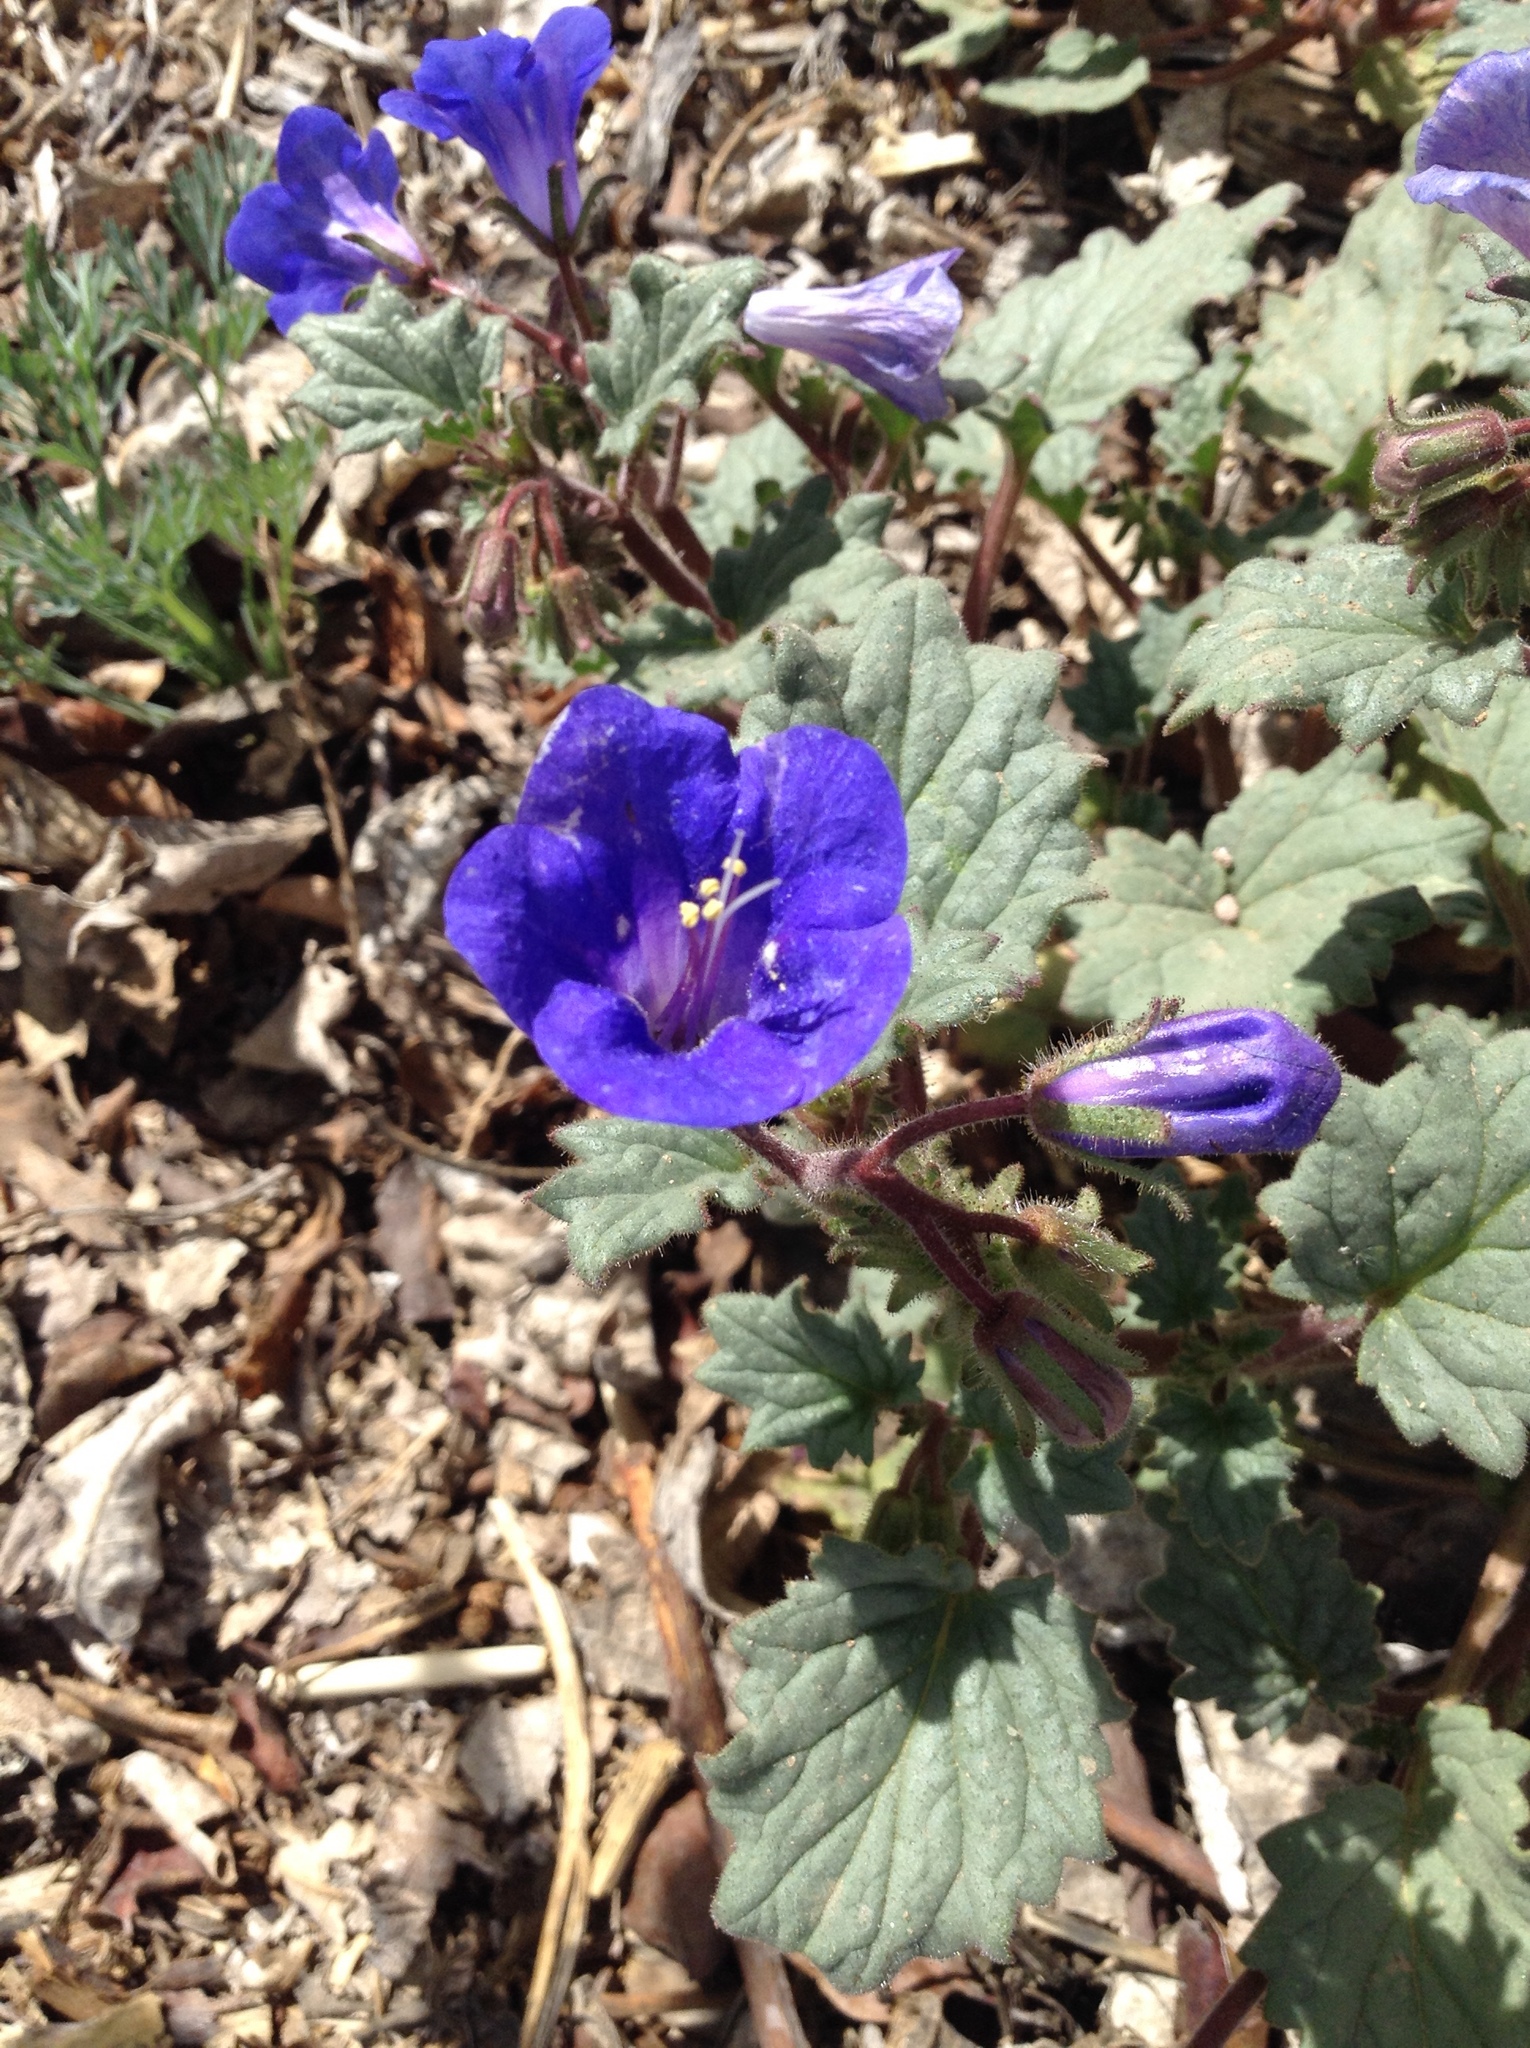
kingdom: Plantae
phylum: Tracheophyta
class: Magnoliopsida
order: Boraginales
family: Hydrophyllaceae
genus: Phacelia
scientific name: Phacelia campanularia
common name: California bluebell
